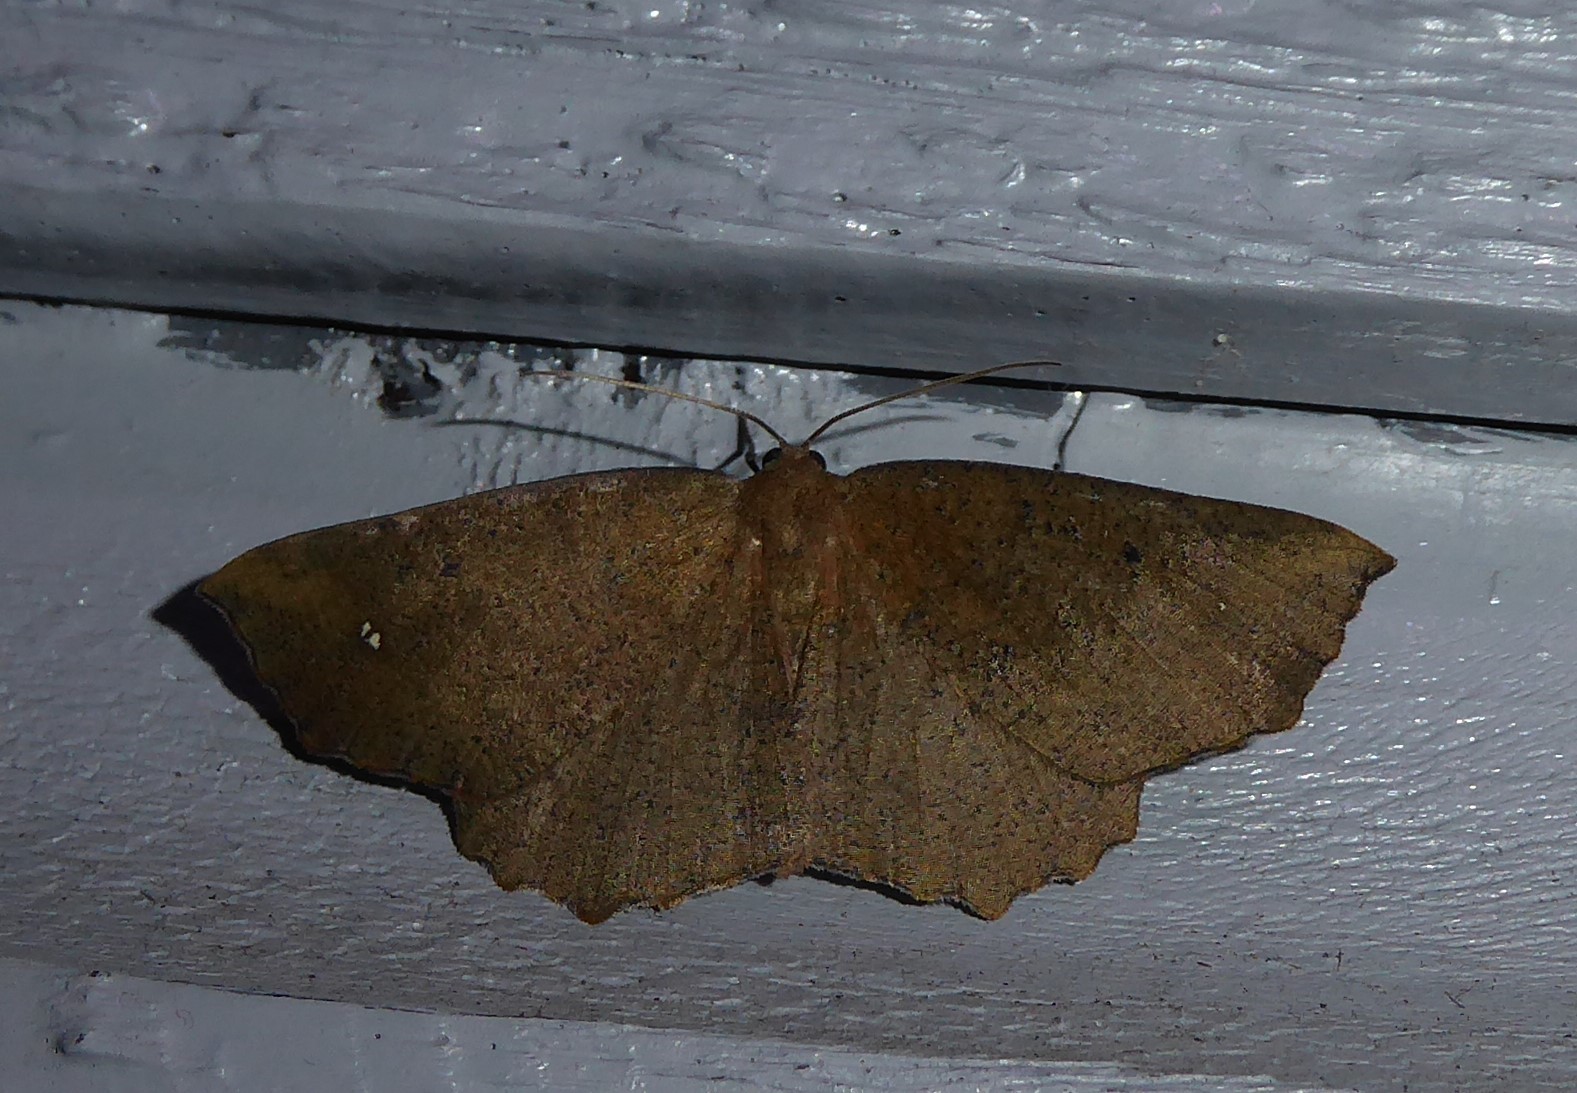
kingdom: Animalia
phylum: Arthropoda
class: Insecta
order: Lepidoptera
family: Geometridae
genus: Xyridacma
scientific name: Xyridacma ustaria
